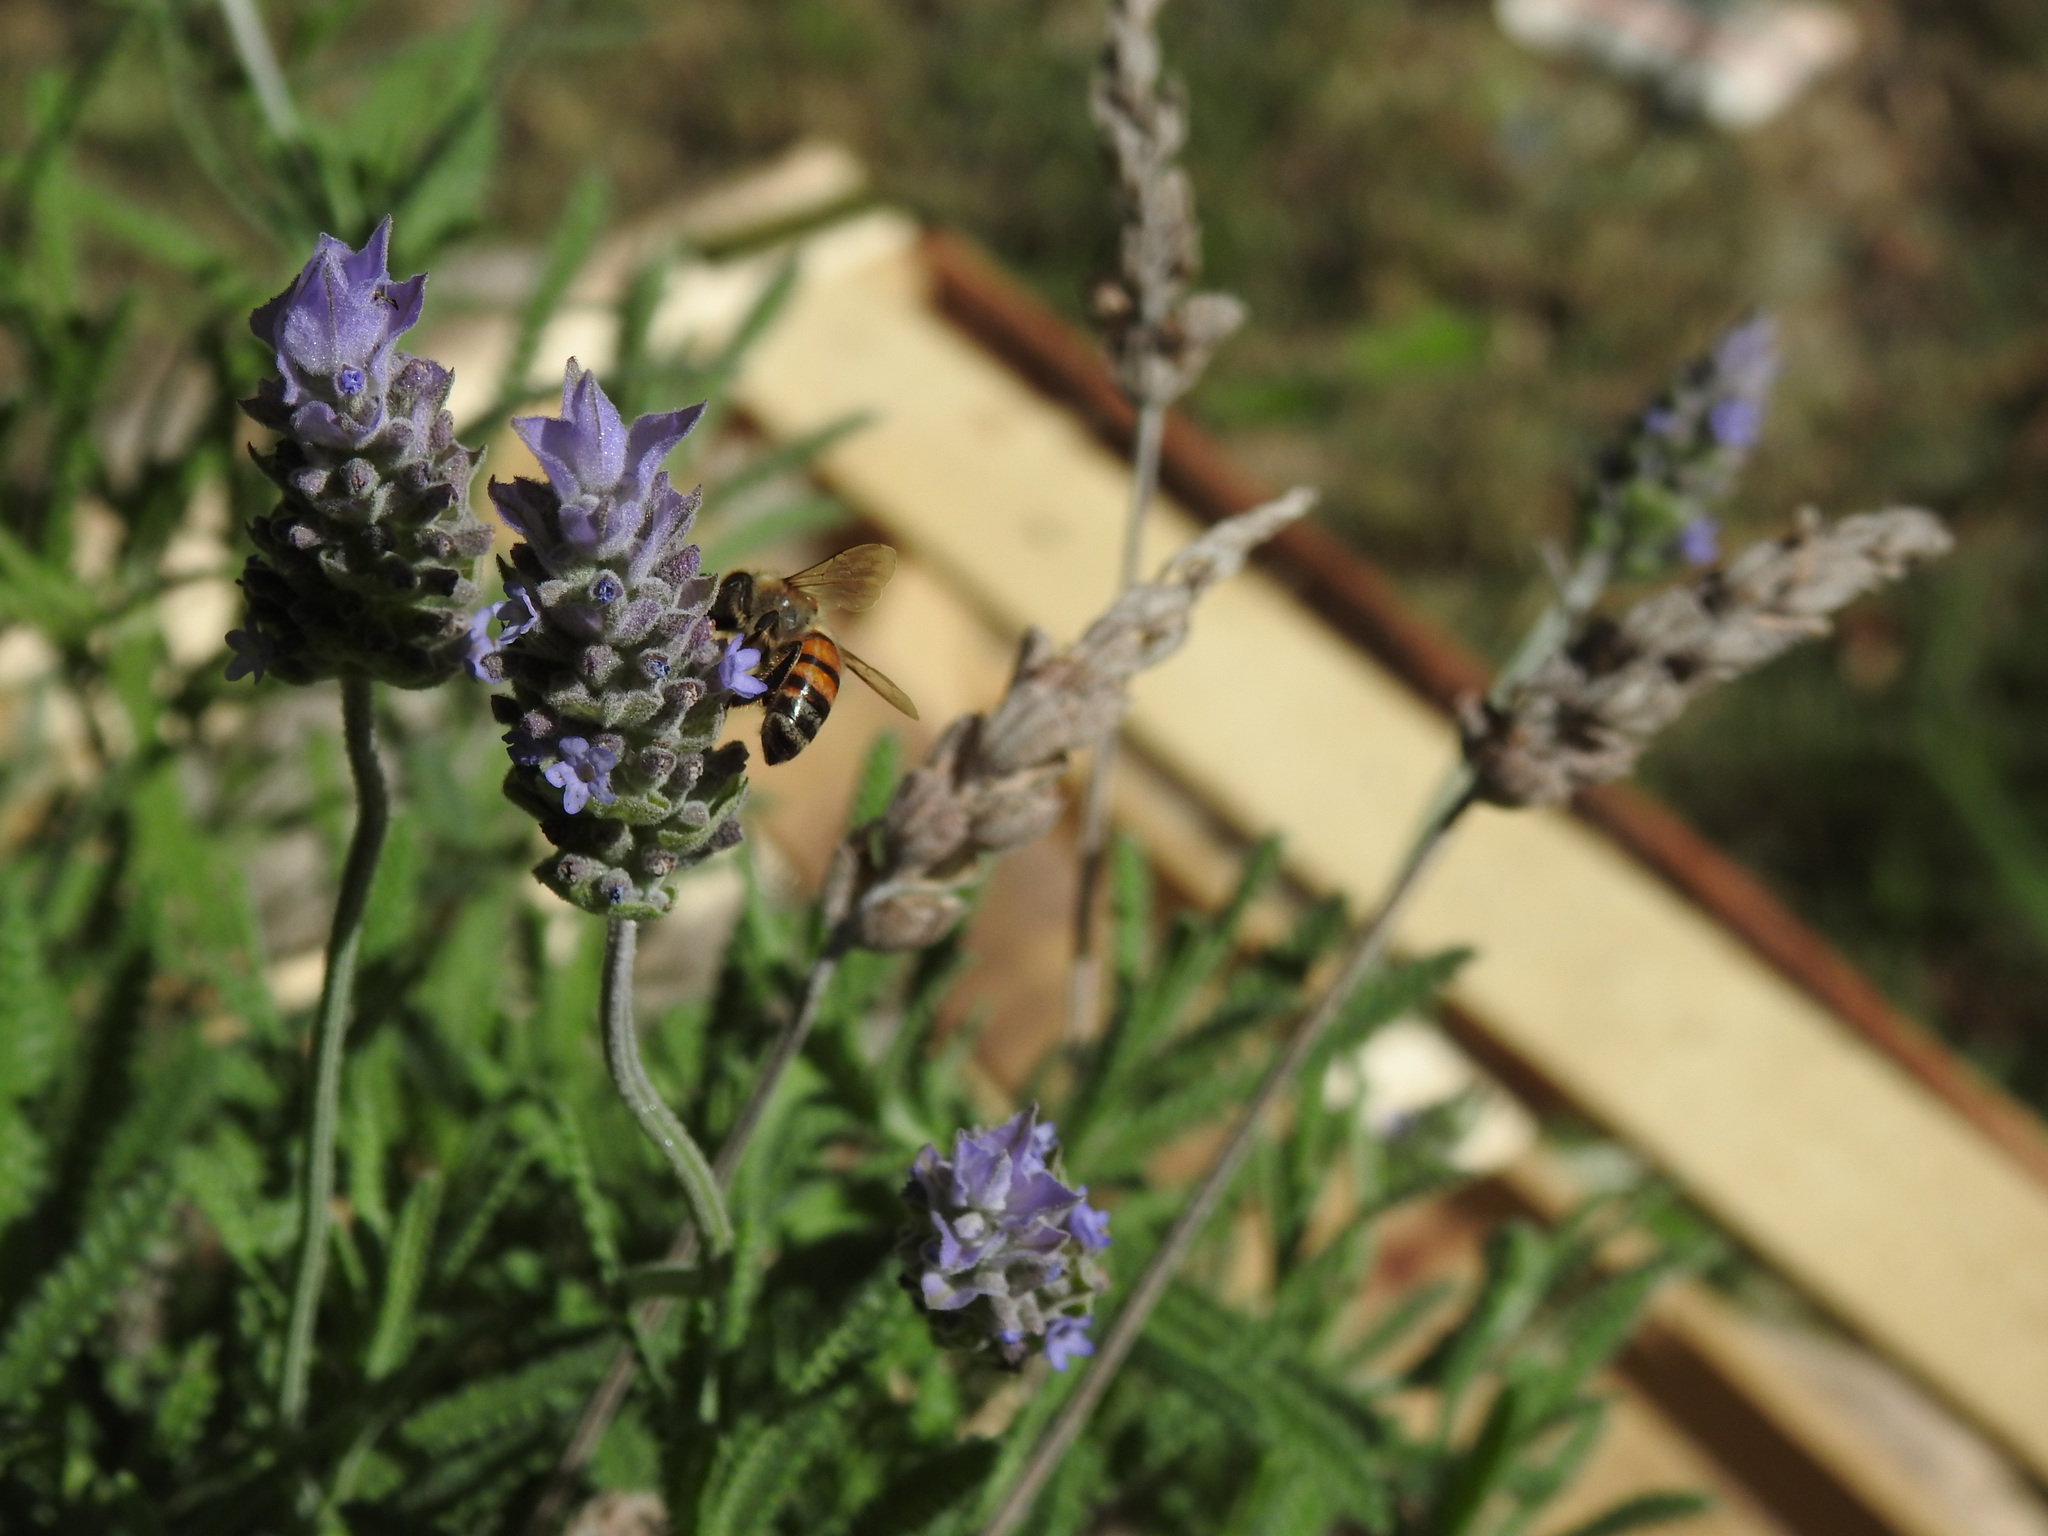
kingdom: Animalia
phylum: Arthropoda
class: Insecta
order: Hymenoptera
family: Apidae
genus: Apis
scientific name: Apis mellifera
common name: Honey bee
